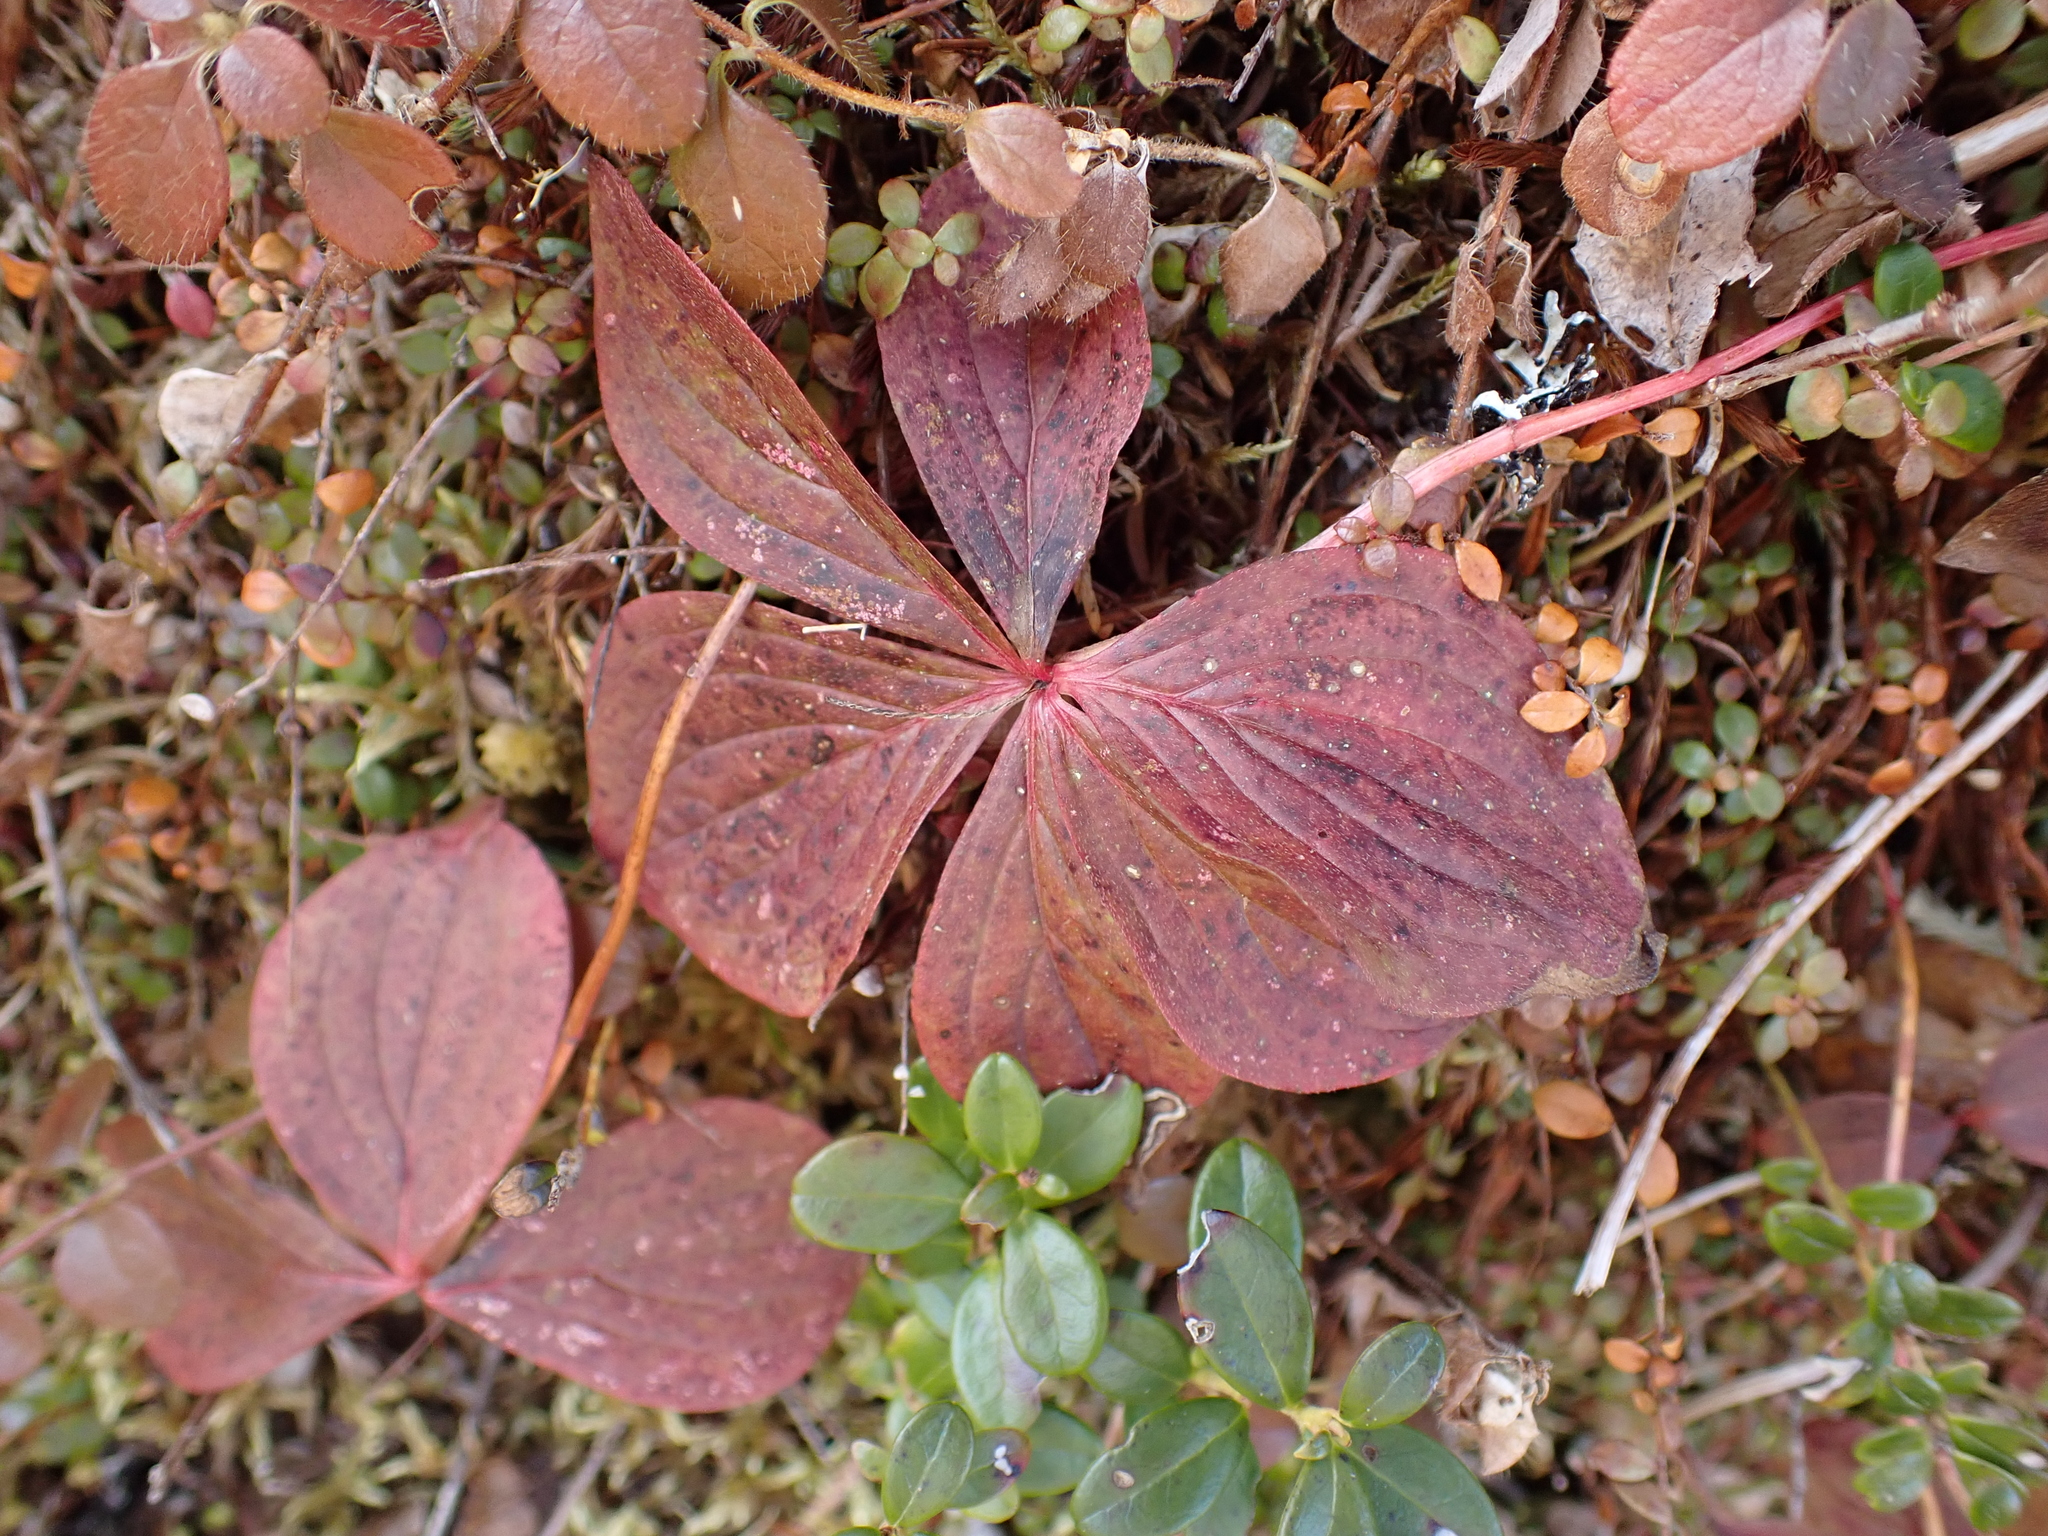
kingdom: Plantae
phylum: Tracheophyta
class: Magnoliopsida
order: Cornales
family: Cornaceae
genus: Cornus
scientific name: Cornus canadensis
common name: Creeping dogwood
